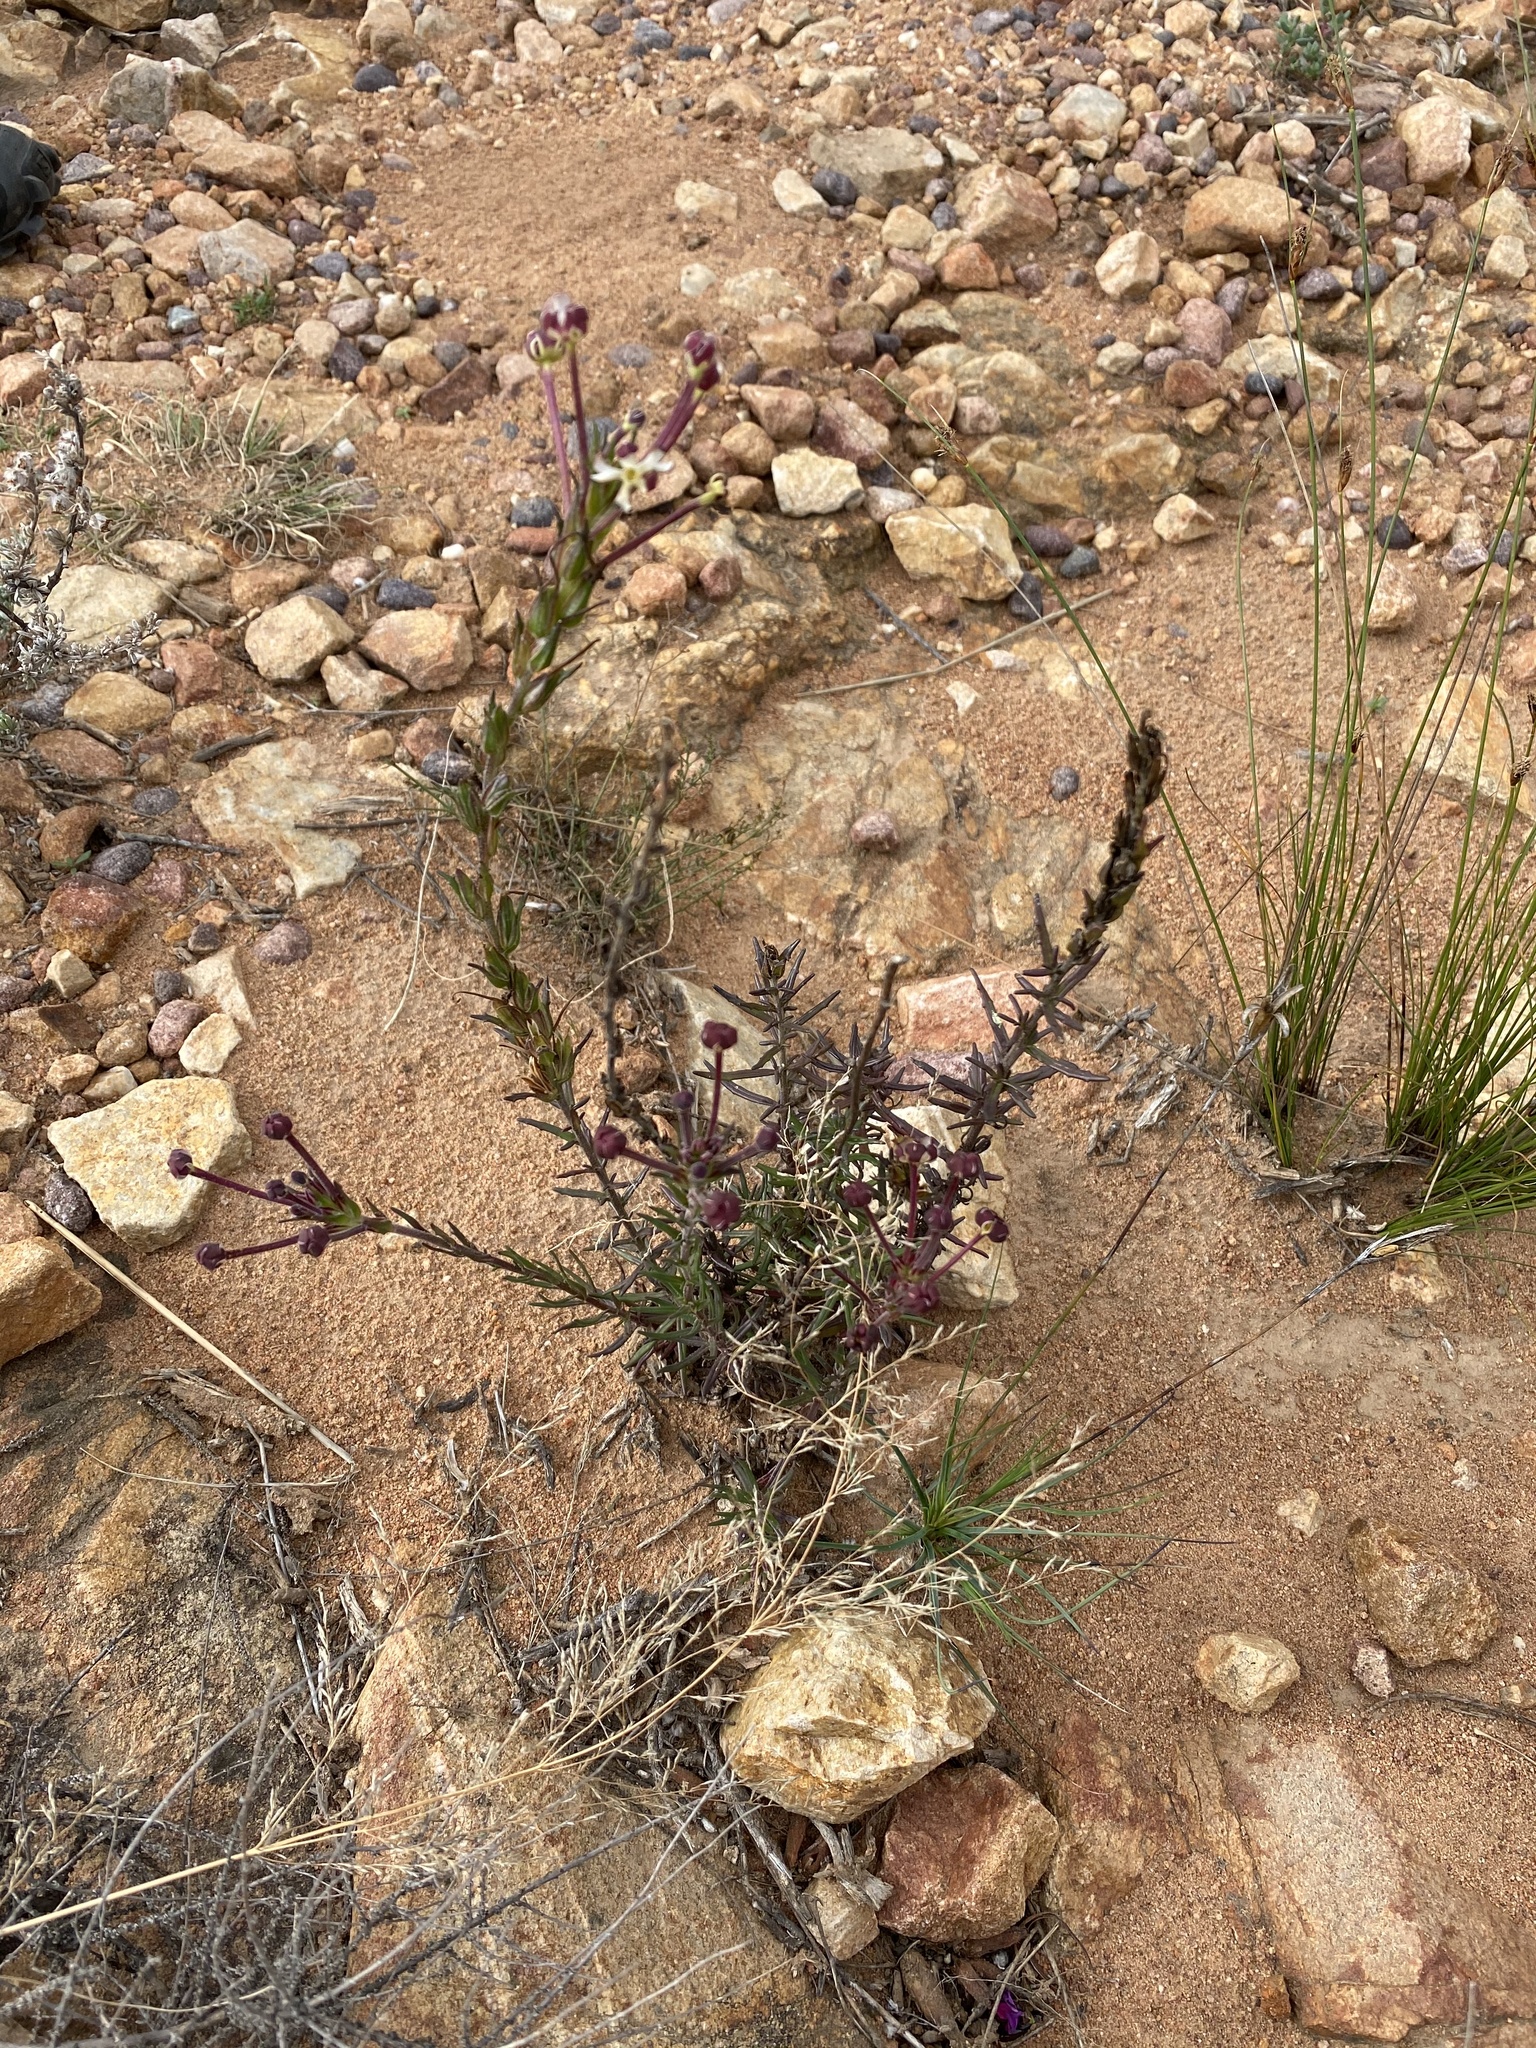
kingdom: Plantae
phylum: Tracheophyta
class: Magnoliopsida
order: Lamiales
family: Scrophulariaceae
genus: Zaluzianskya
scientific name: Zaluzianskya capensis
